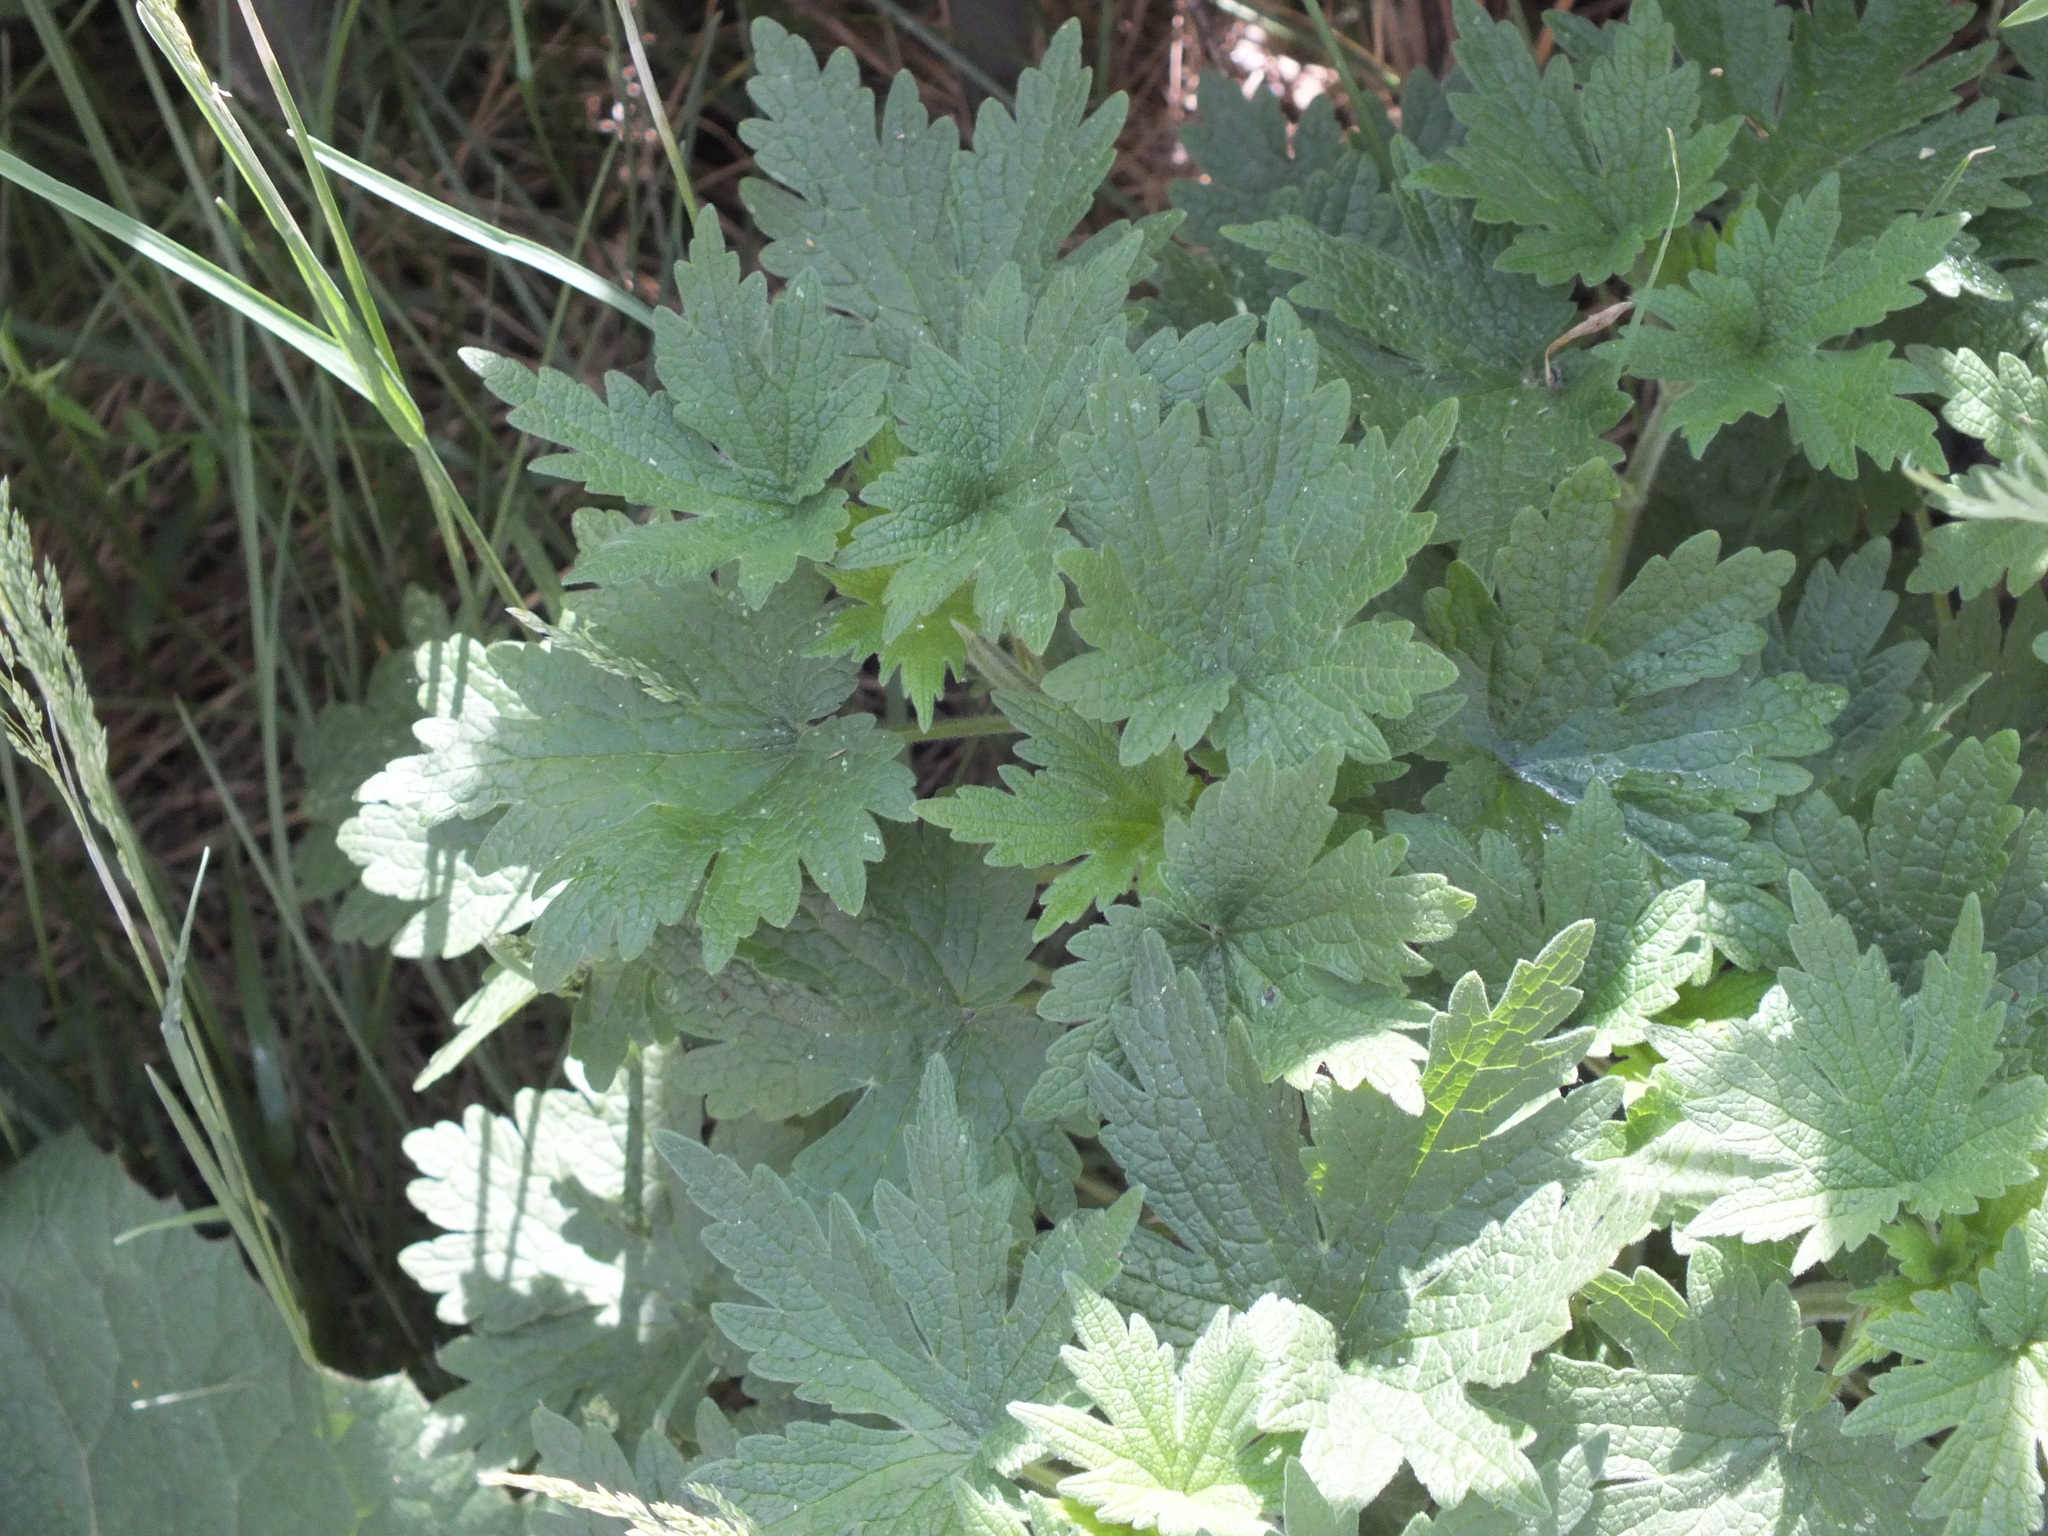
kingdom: Plantae
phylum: Tracheophyta
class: Magnoliopsida
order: Lamiales
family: Lamiaceae
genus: Leonurus
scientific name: Leonurus quinquelobatus
